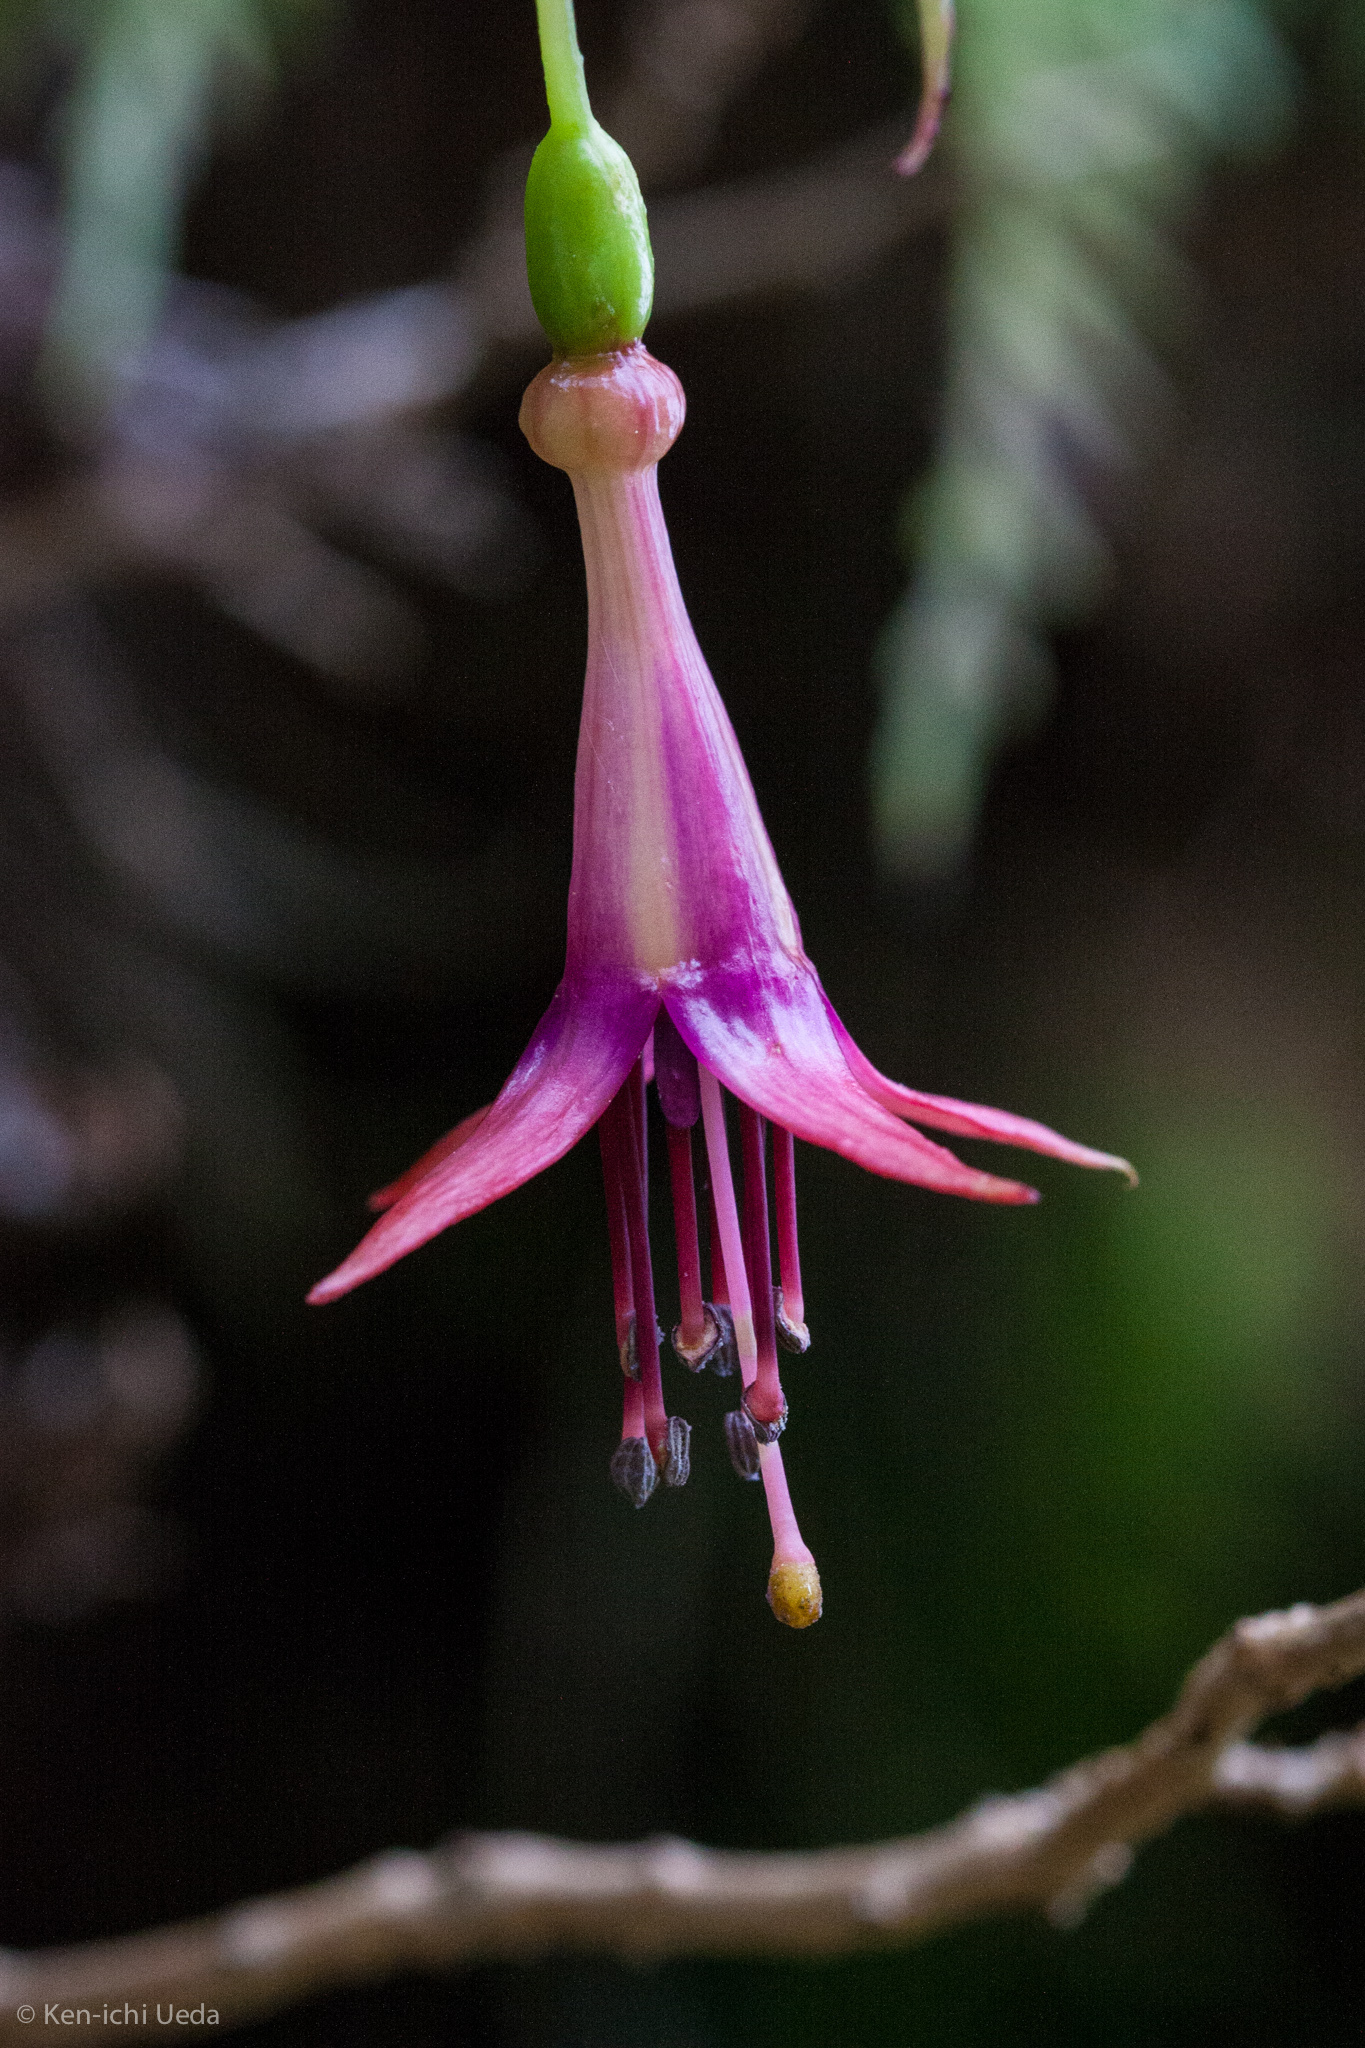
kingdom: Plantae
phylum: Tracheophyta
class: Magnoliopsida
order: Myrtales
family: Onagraceae
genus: Fuchsia
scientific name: Fuchsia excorticata
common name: Tree fuchsia
